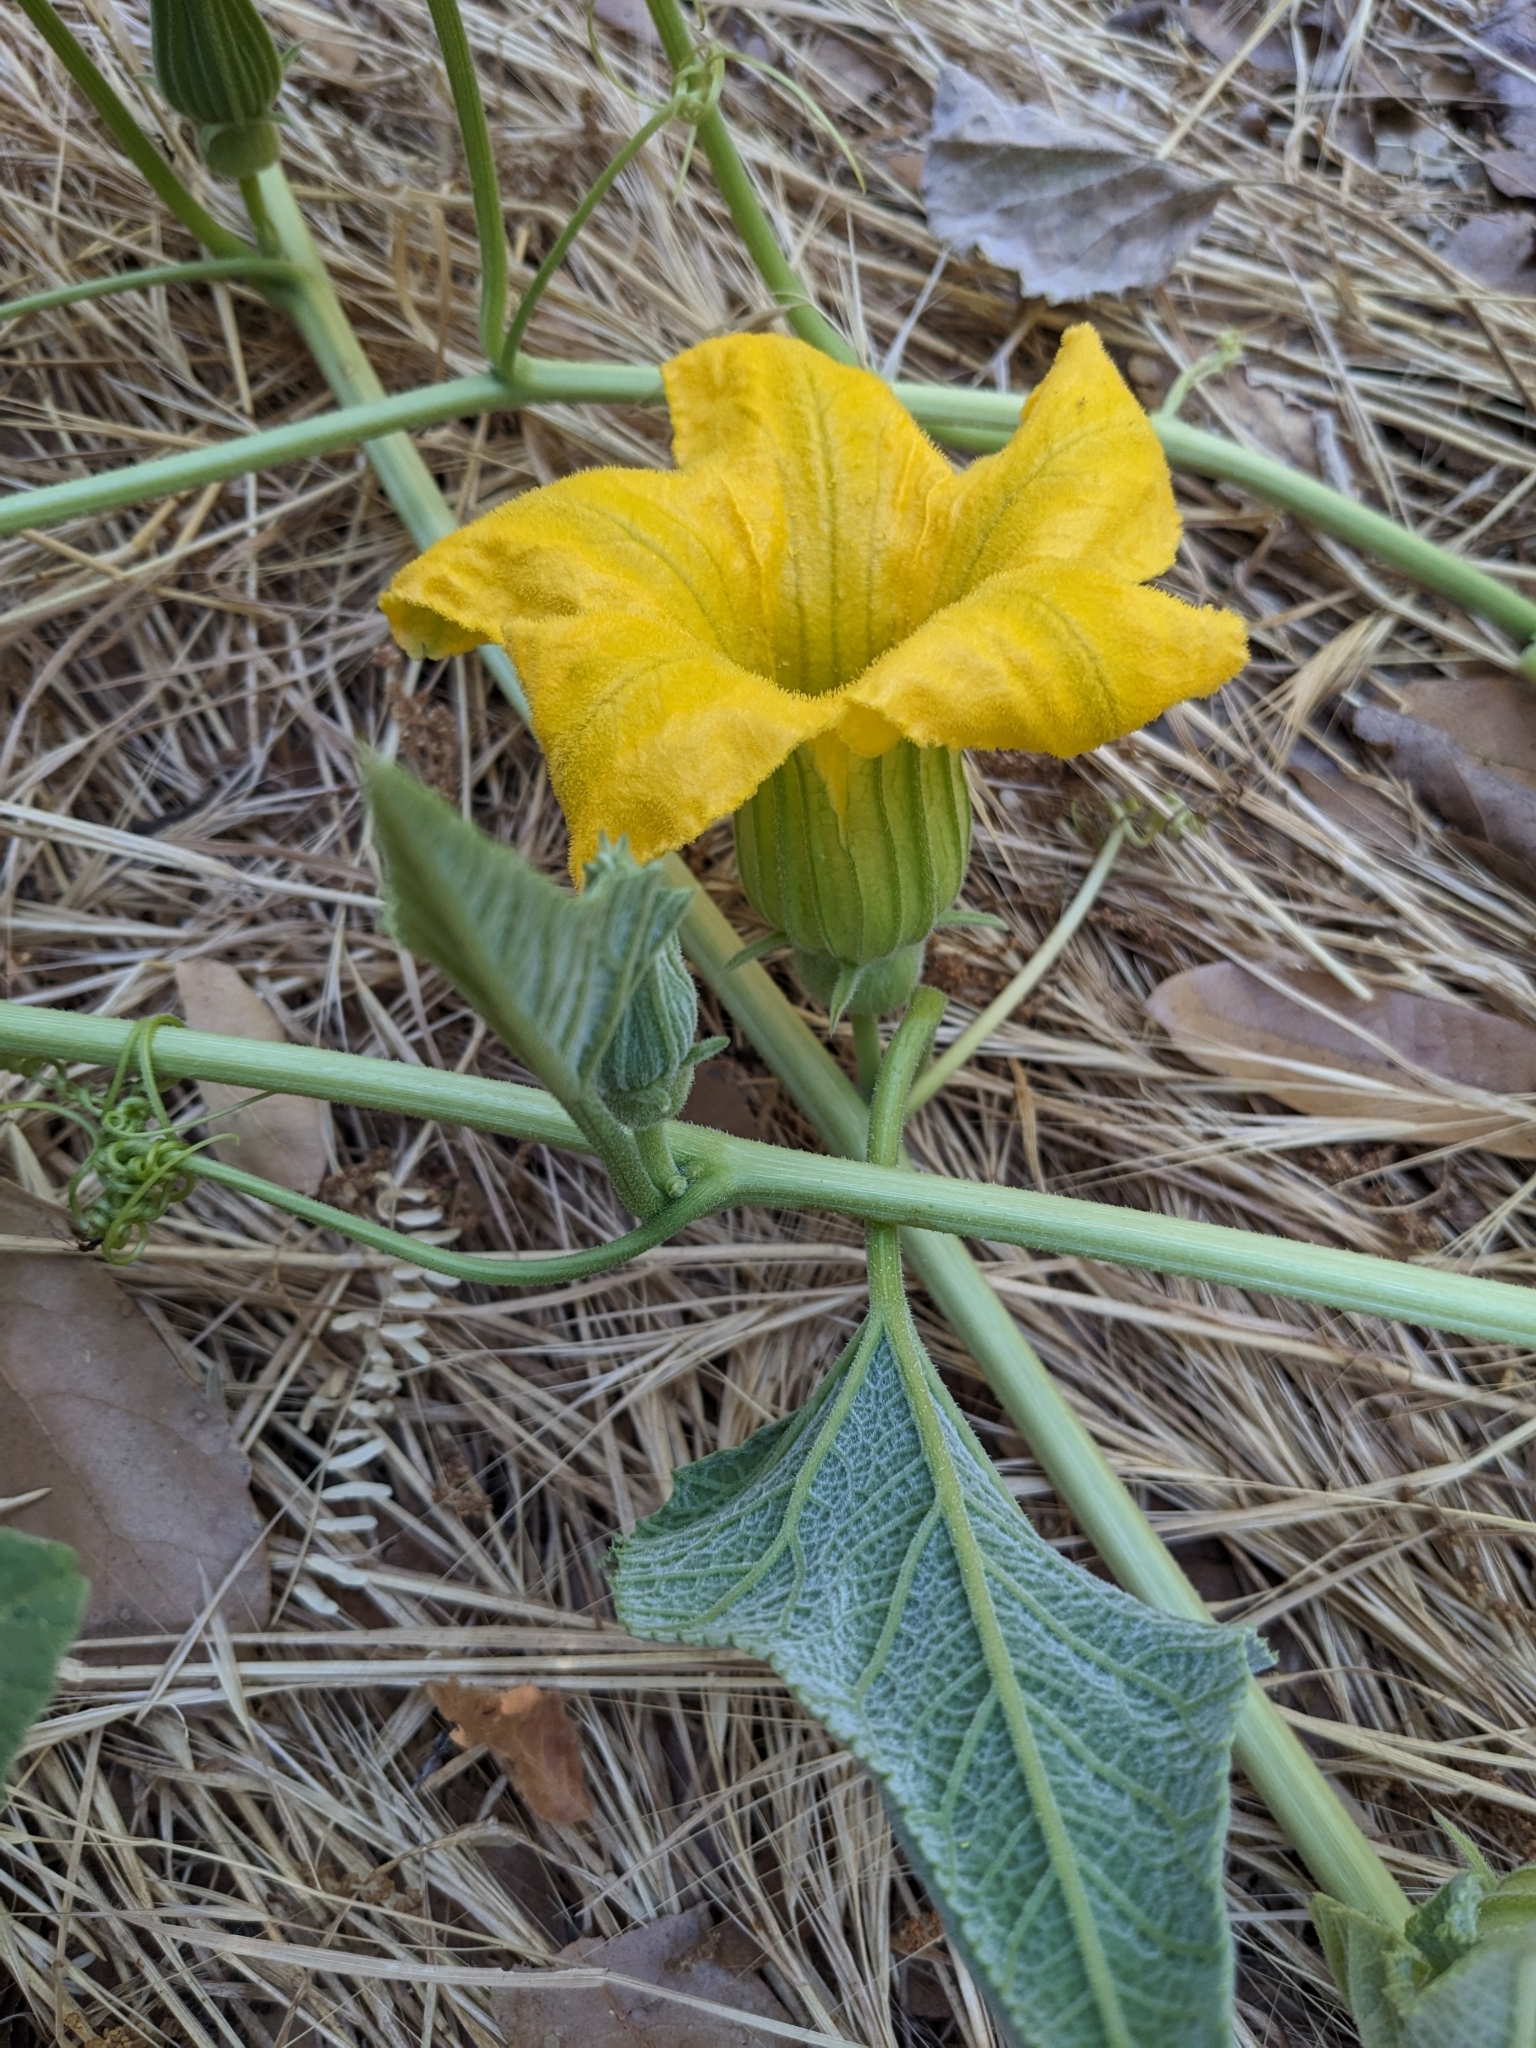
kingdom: Plantae
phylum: Tracheophyta
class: Magnoliopsida
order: Cucurbitales
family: Cucurbitaceae
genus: Cucurbita
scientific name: Cucurbita foetidissima
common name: Buffalo gourd
